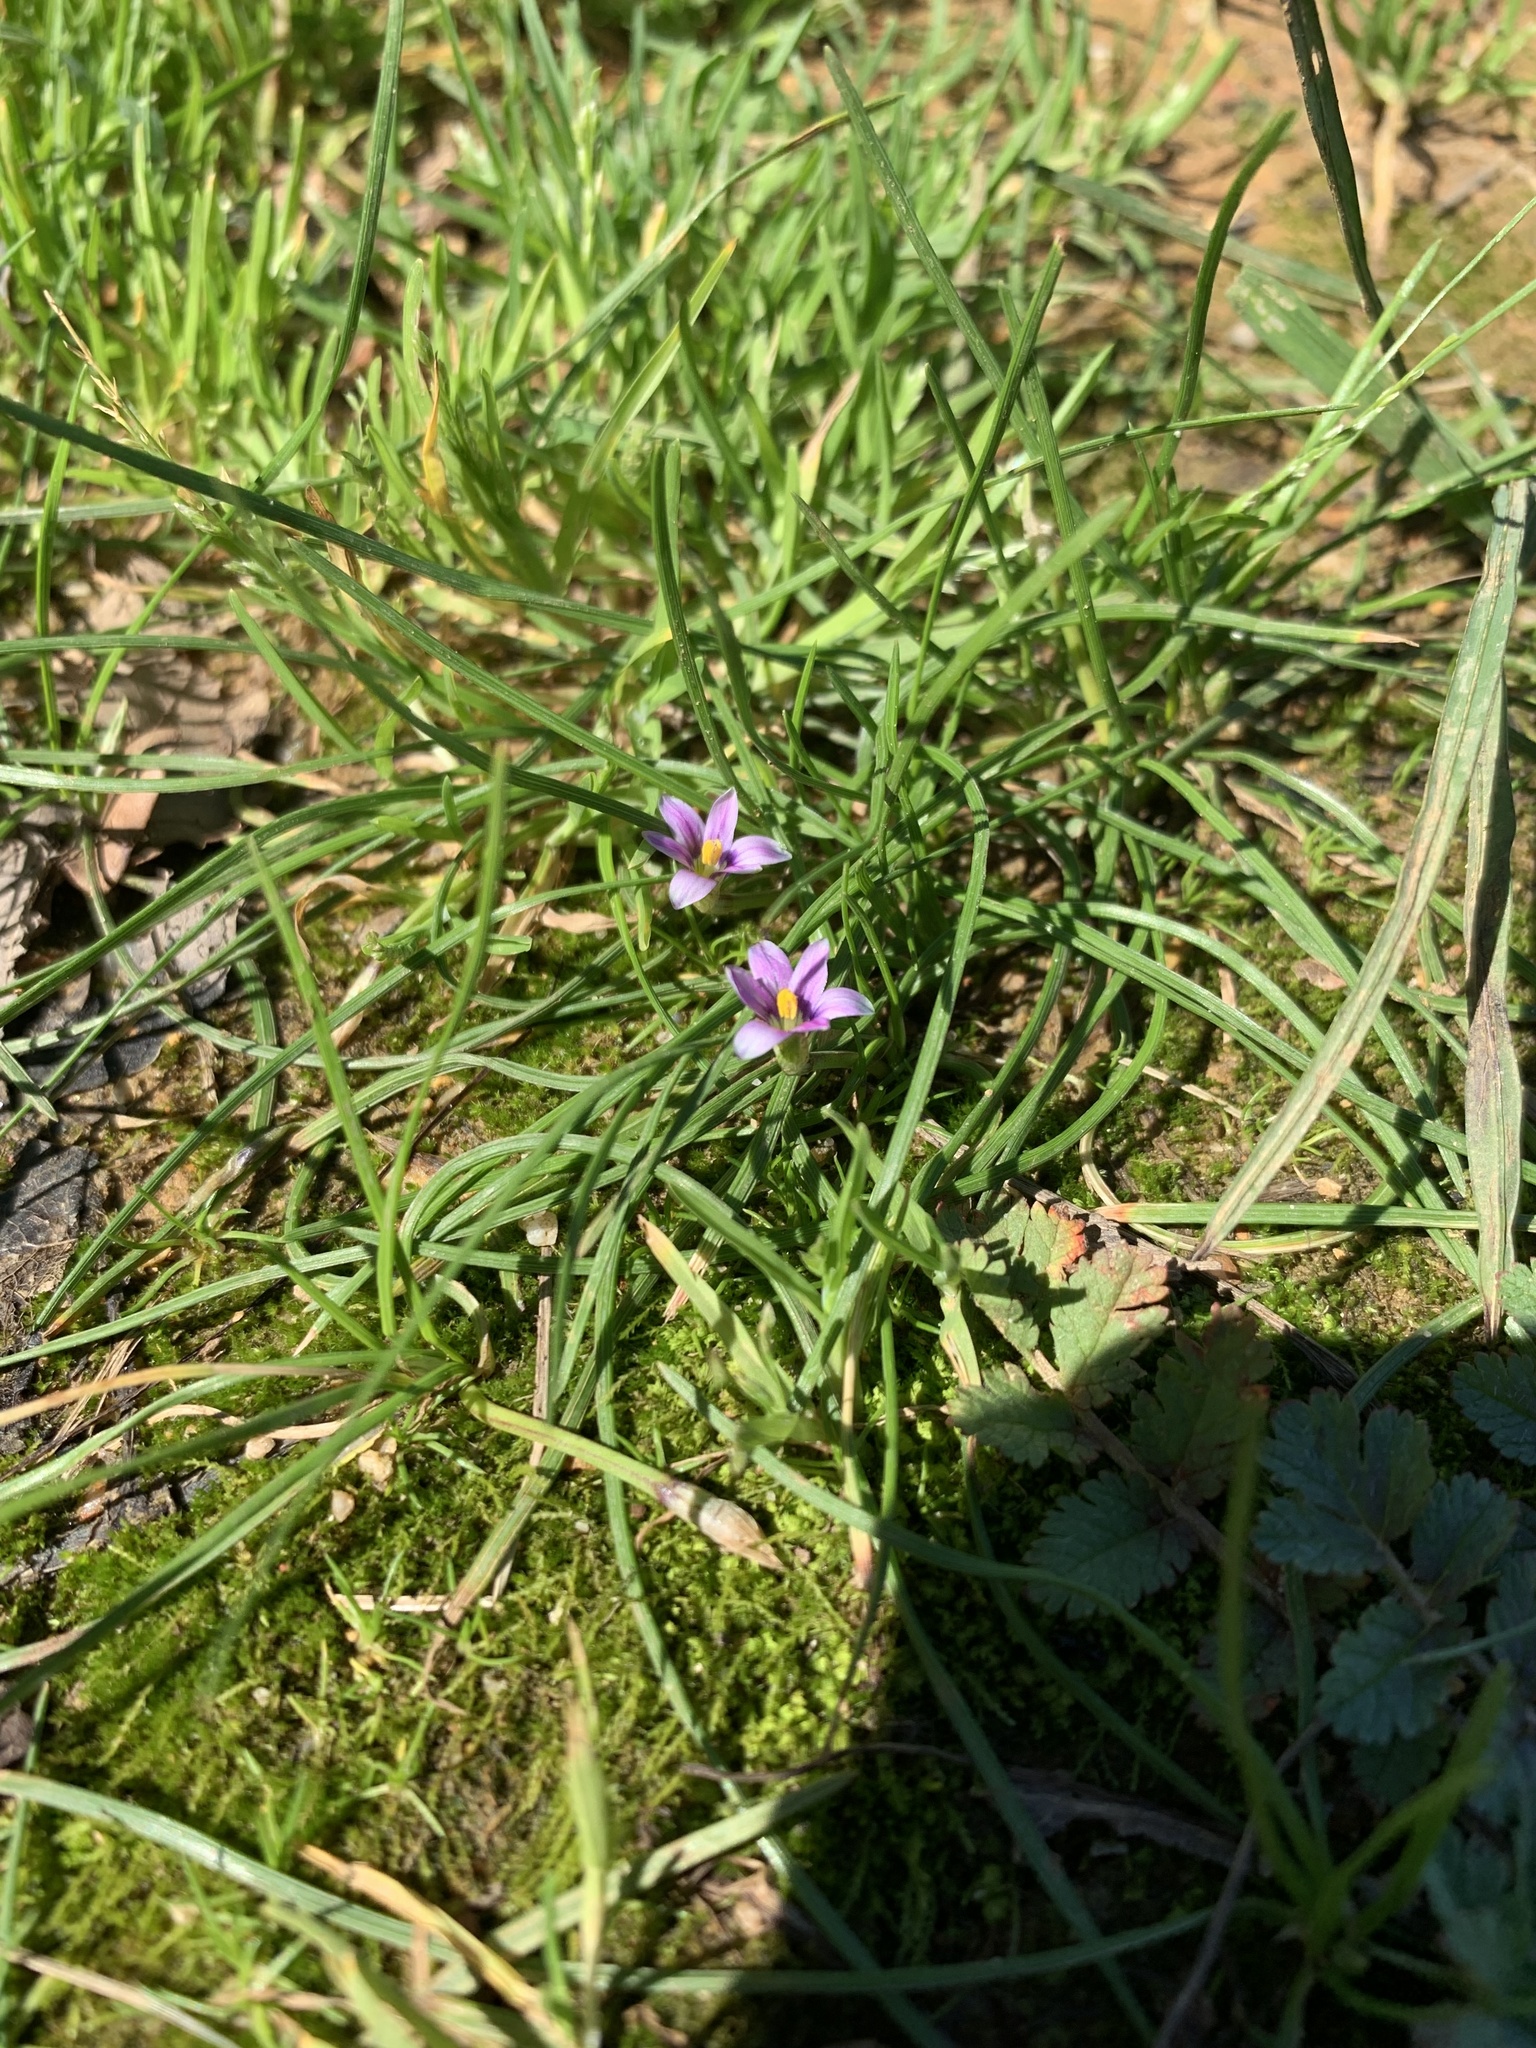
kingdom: Plantae
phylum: Tracheophyta
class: Liliopsida
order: Asparagales
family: Iridaceae
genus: Romulea
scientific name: Romulea rosea
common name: Oniongrass
